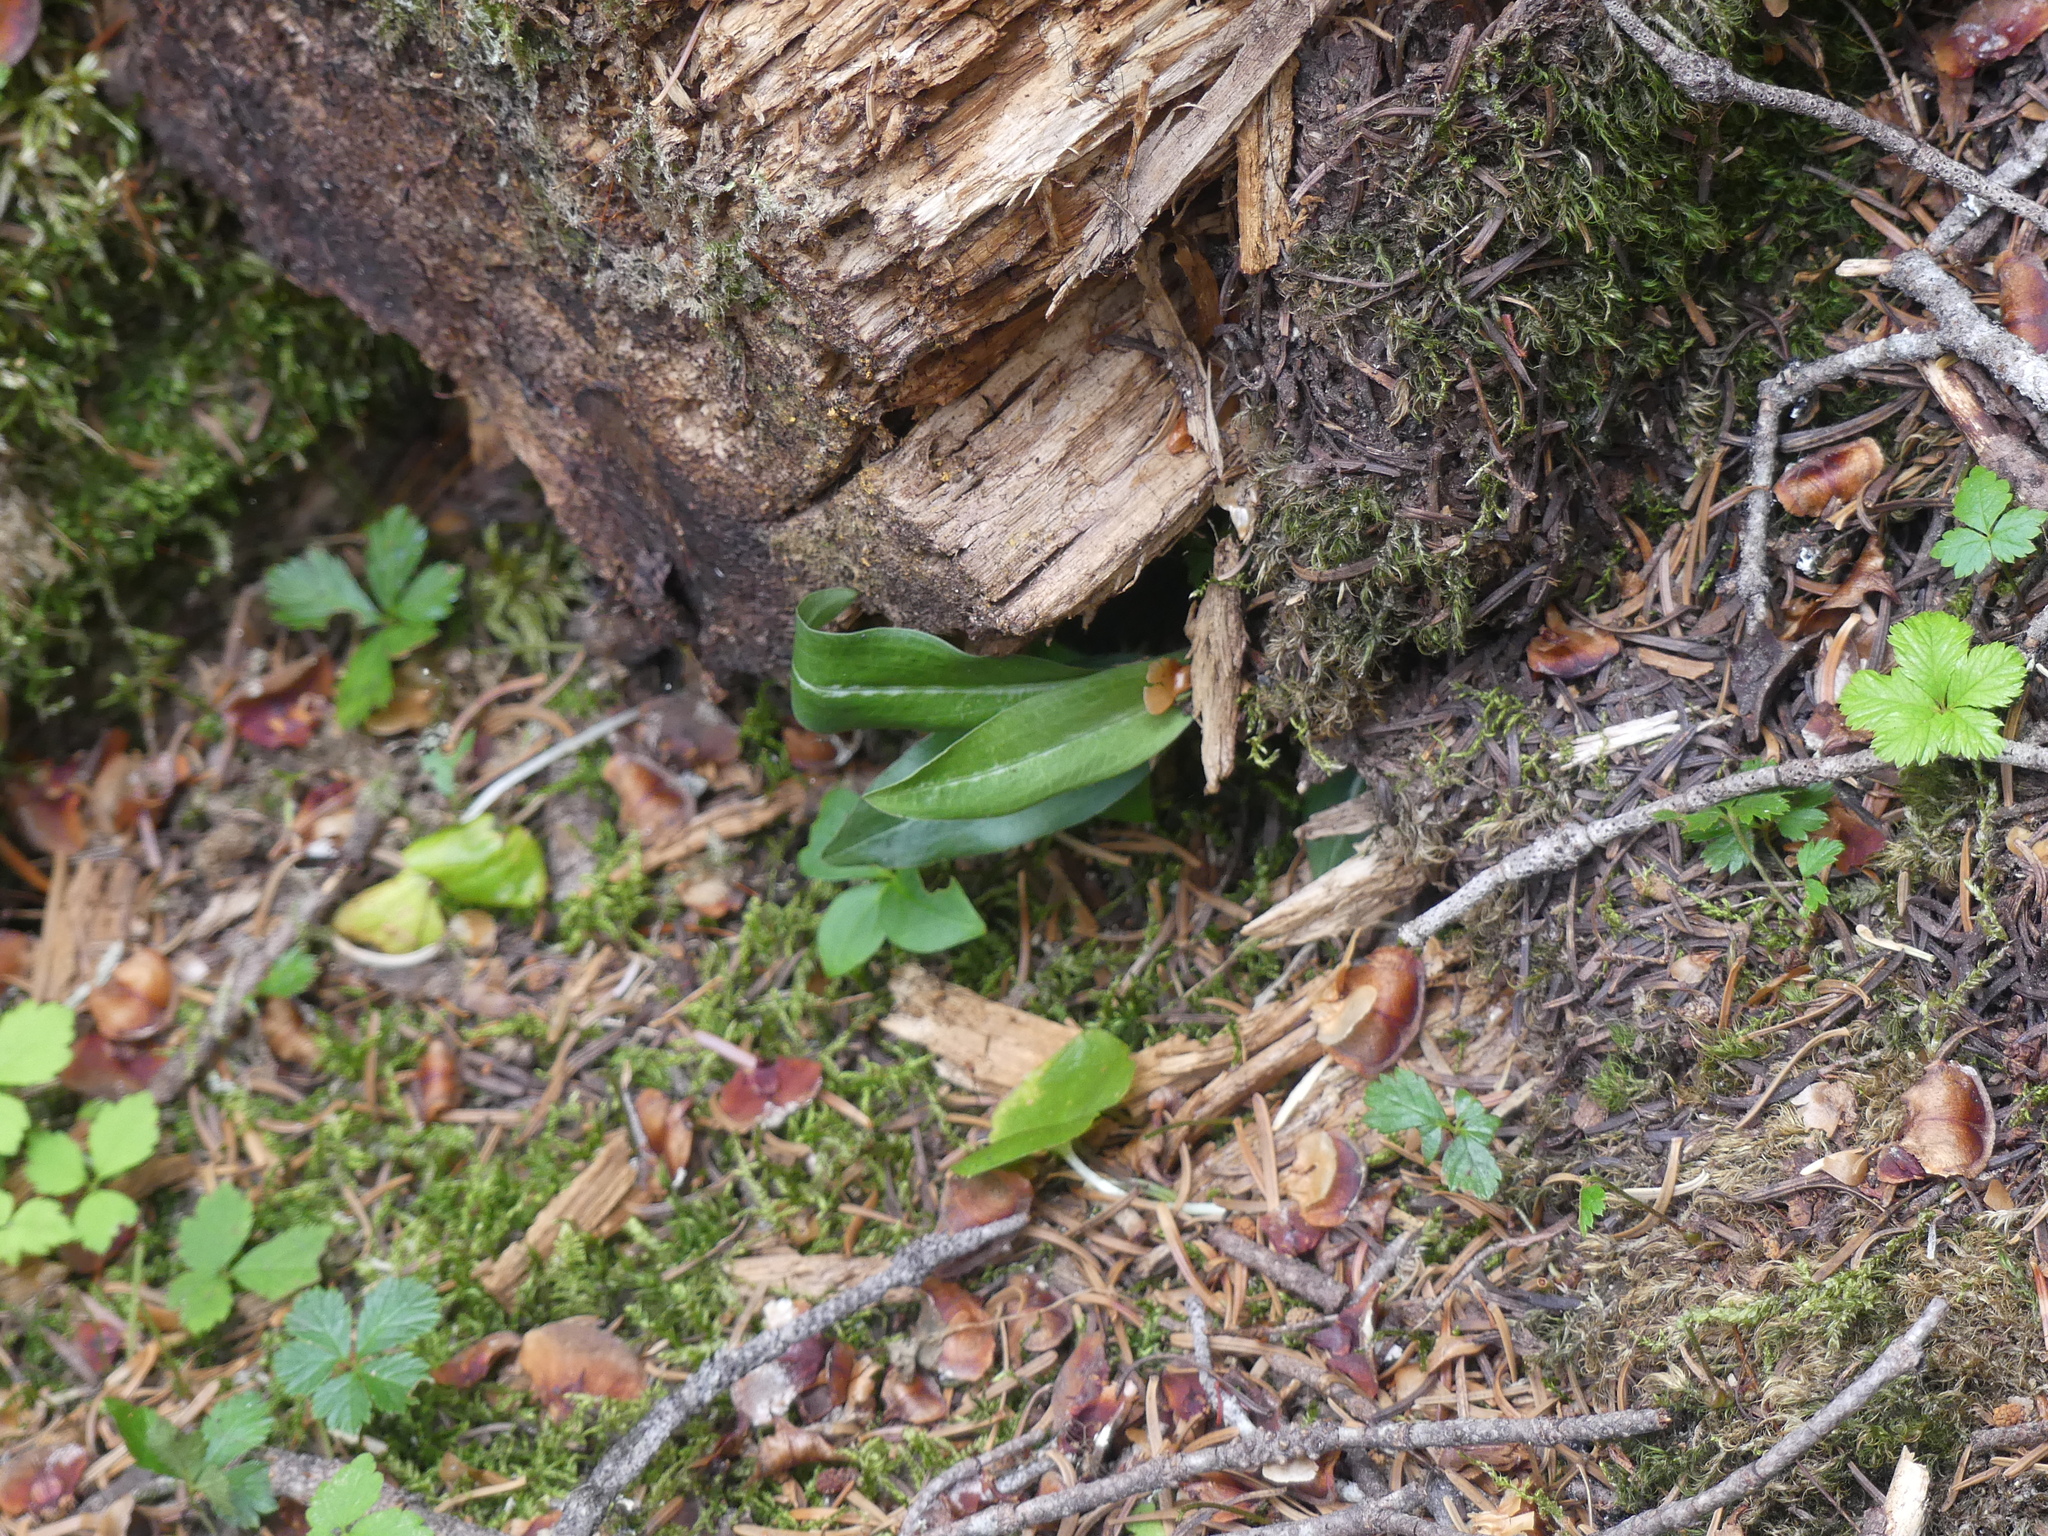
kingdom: Plantae
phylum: Tracheophyta
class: Liliopsida
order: Asparagales
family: Orchidaceae
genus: Goodyera
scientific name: Goodyera oblongifolia
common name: Giant rattlesnake-plantain
